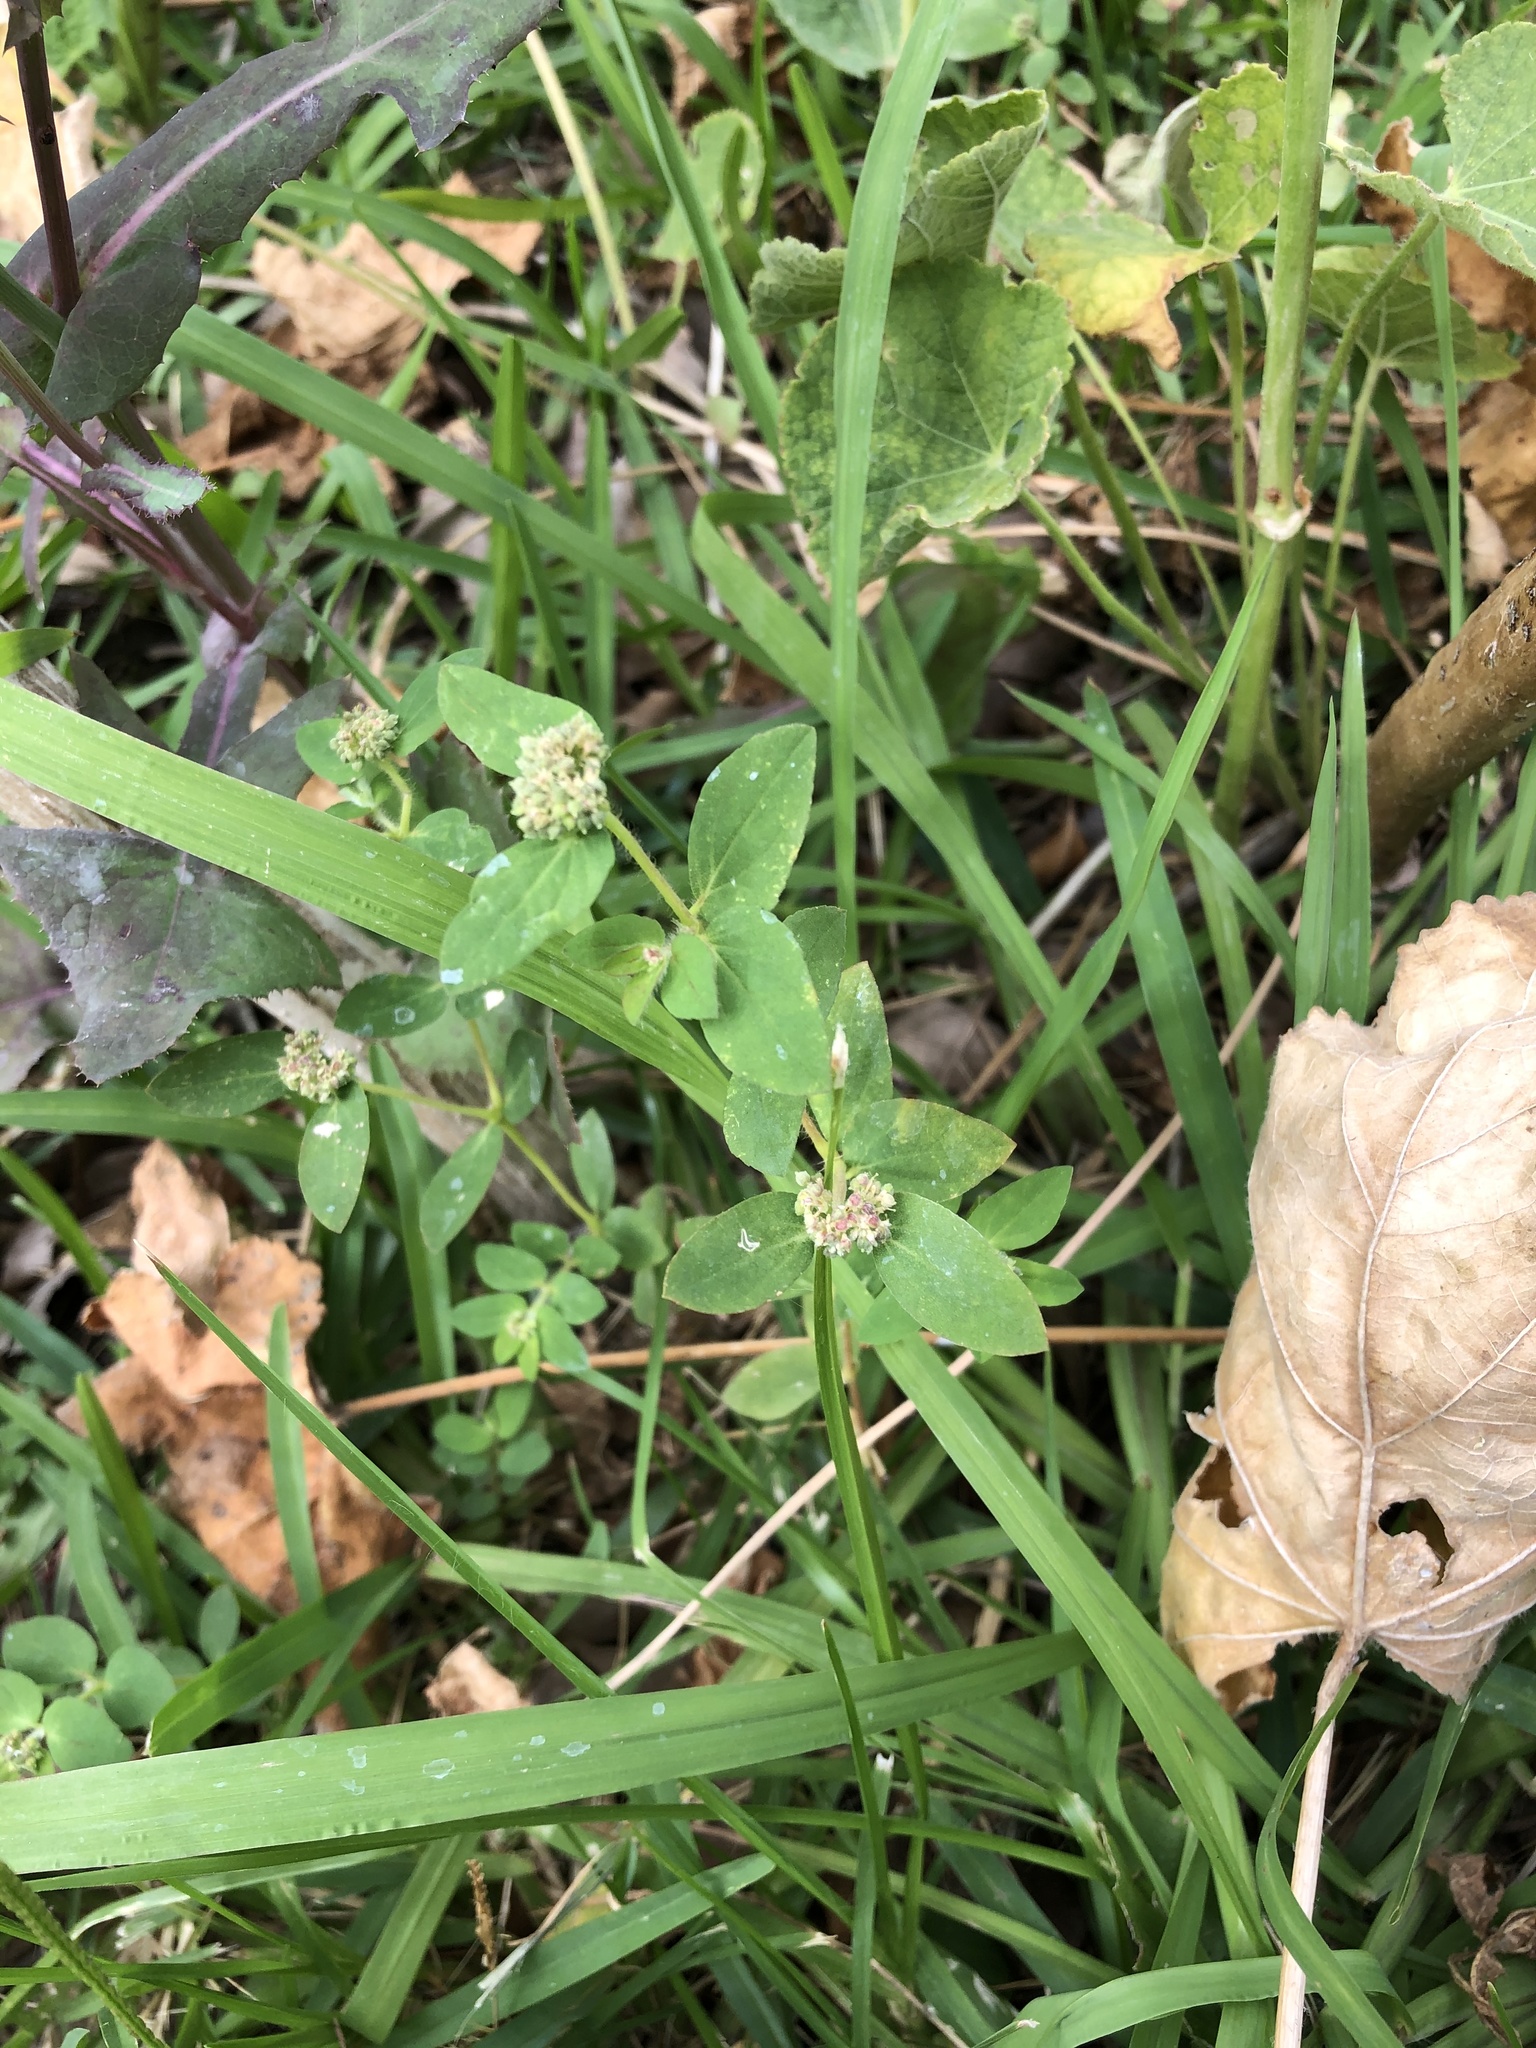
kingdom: Plantae
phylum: Tracheophyta
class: Magnoliopsida
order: Malpighiales
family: Euphorbiaceae
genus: Euphorbia
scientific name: Euphorbia ophthalmica
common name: Florida hammock sandmat
